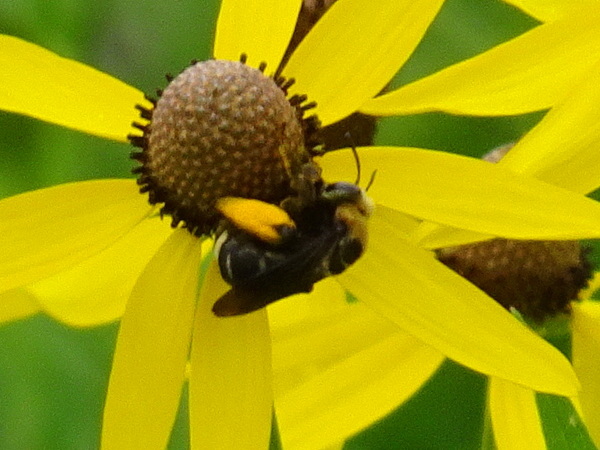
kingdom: Animalia
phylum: Arthropoda
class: Insecta
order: Hymenoptera
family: Apidae
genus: Svastra
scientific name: Svastra obliqua
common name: Oblique longhorn
